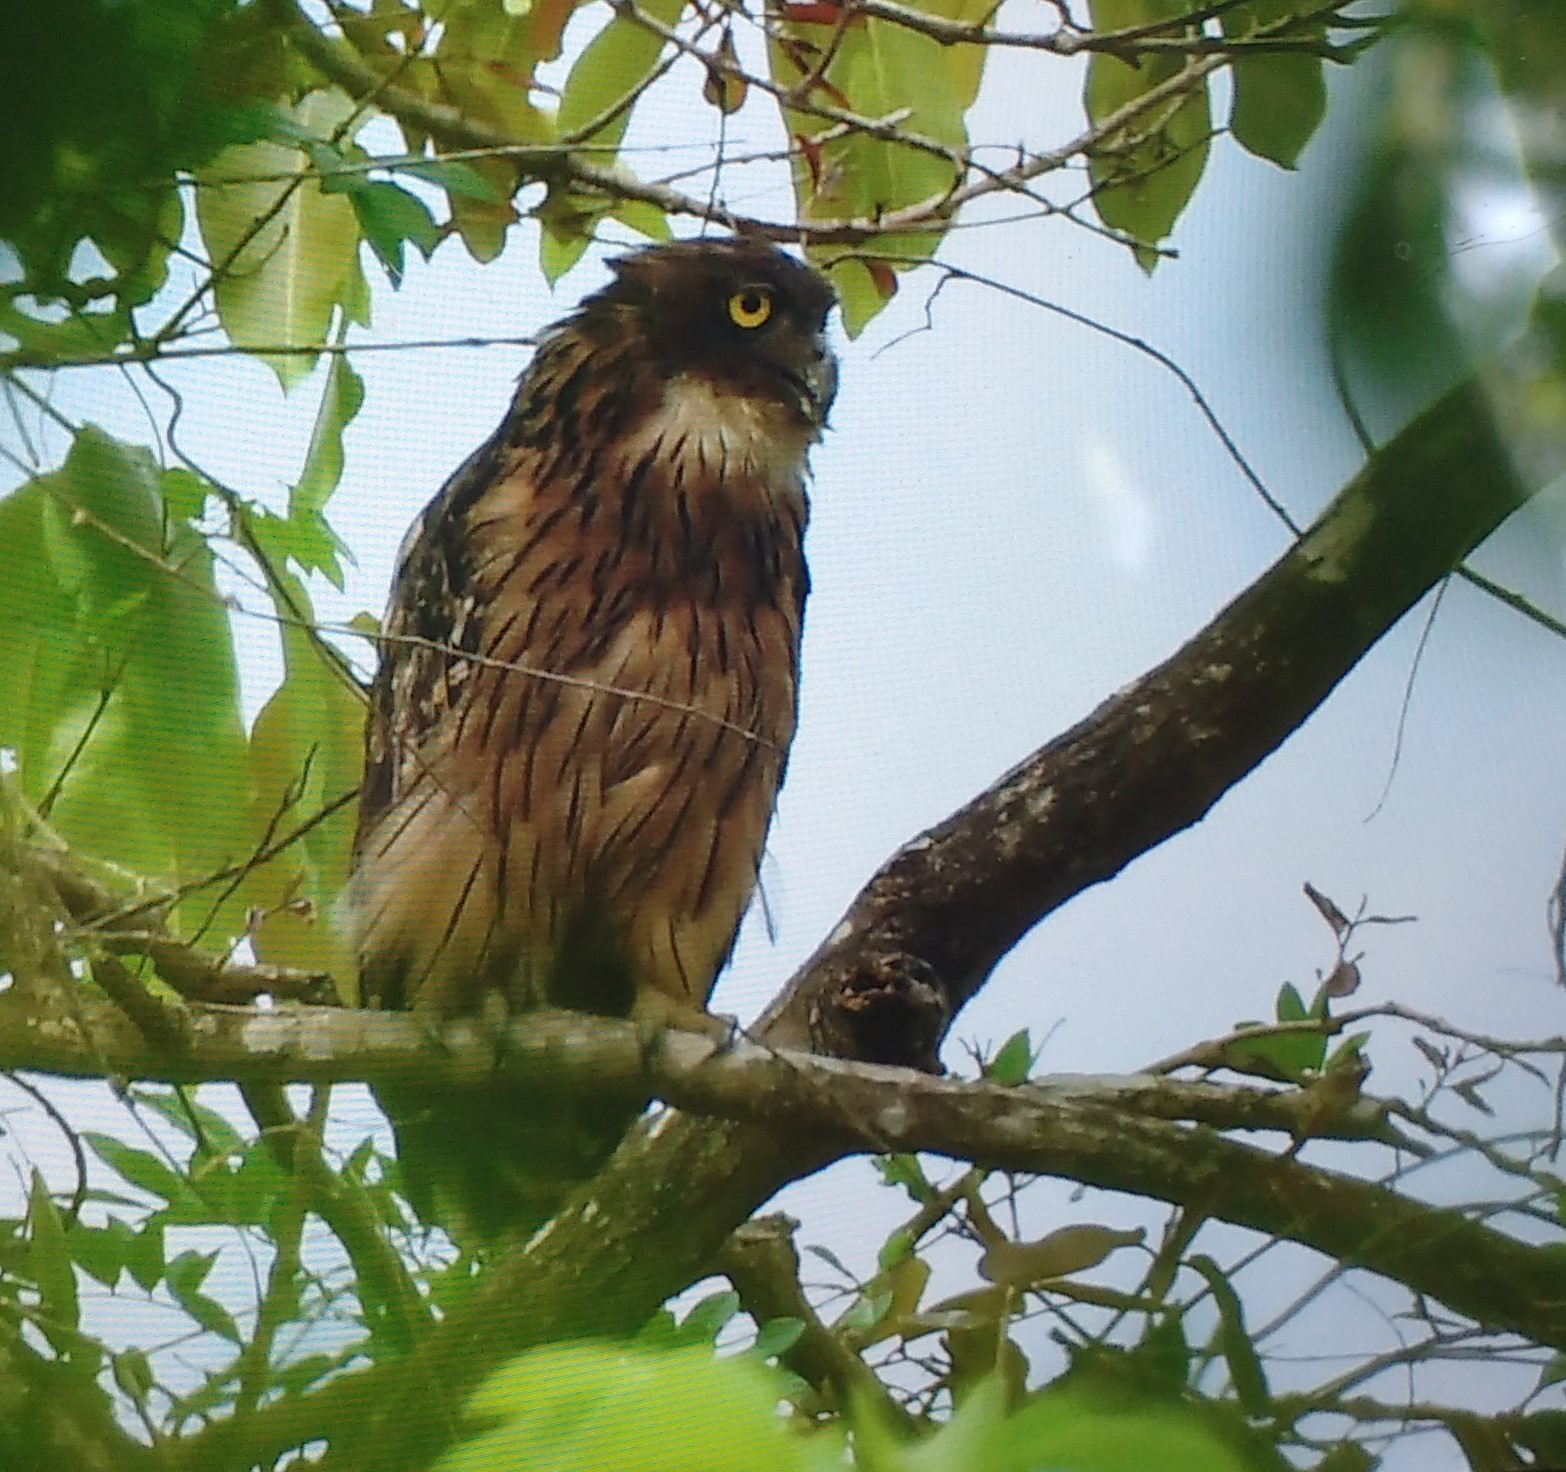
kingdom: Animalia
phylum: Chordata
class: Aves
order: Strigiformes
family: Strigidae
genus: Ketupa
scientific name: Ketupa zeylonensis
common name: Brown fish owl
